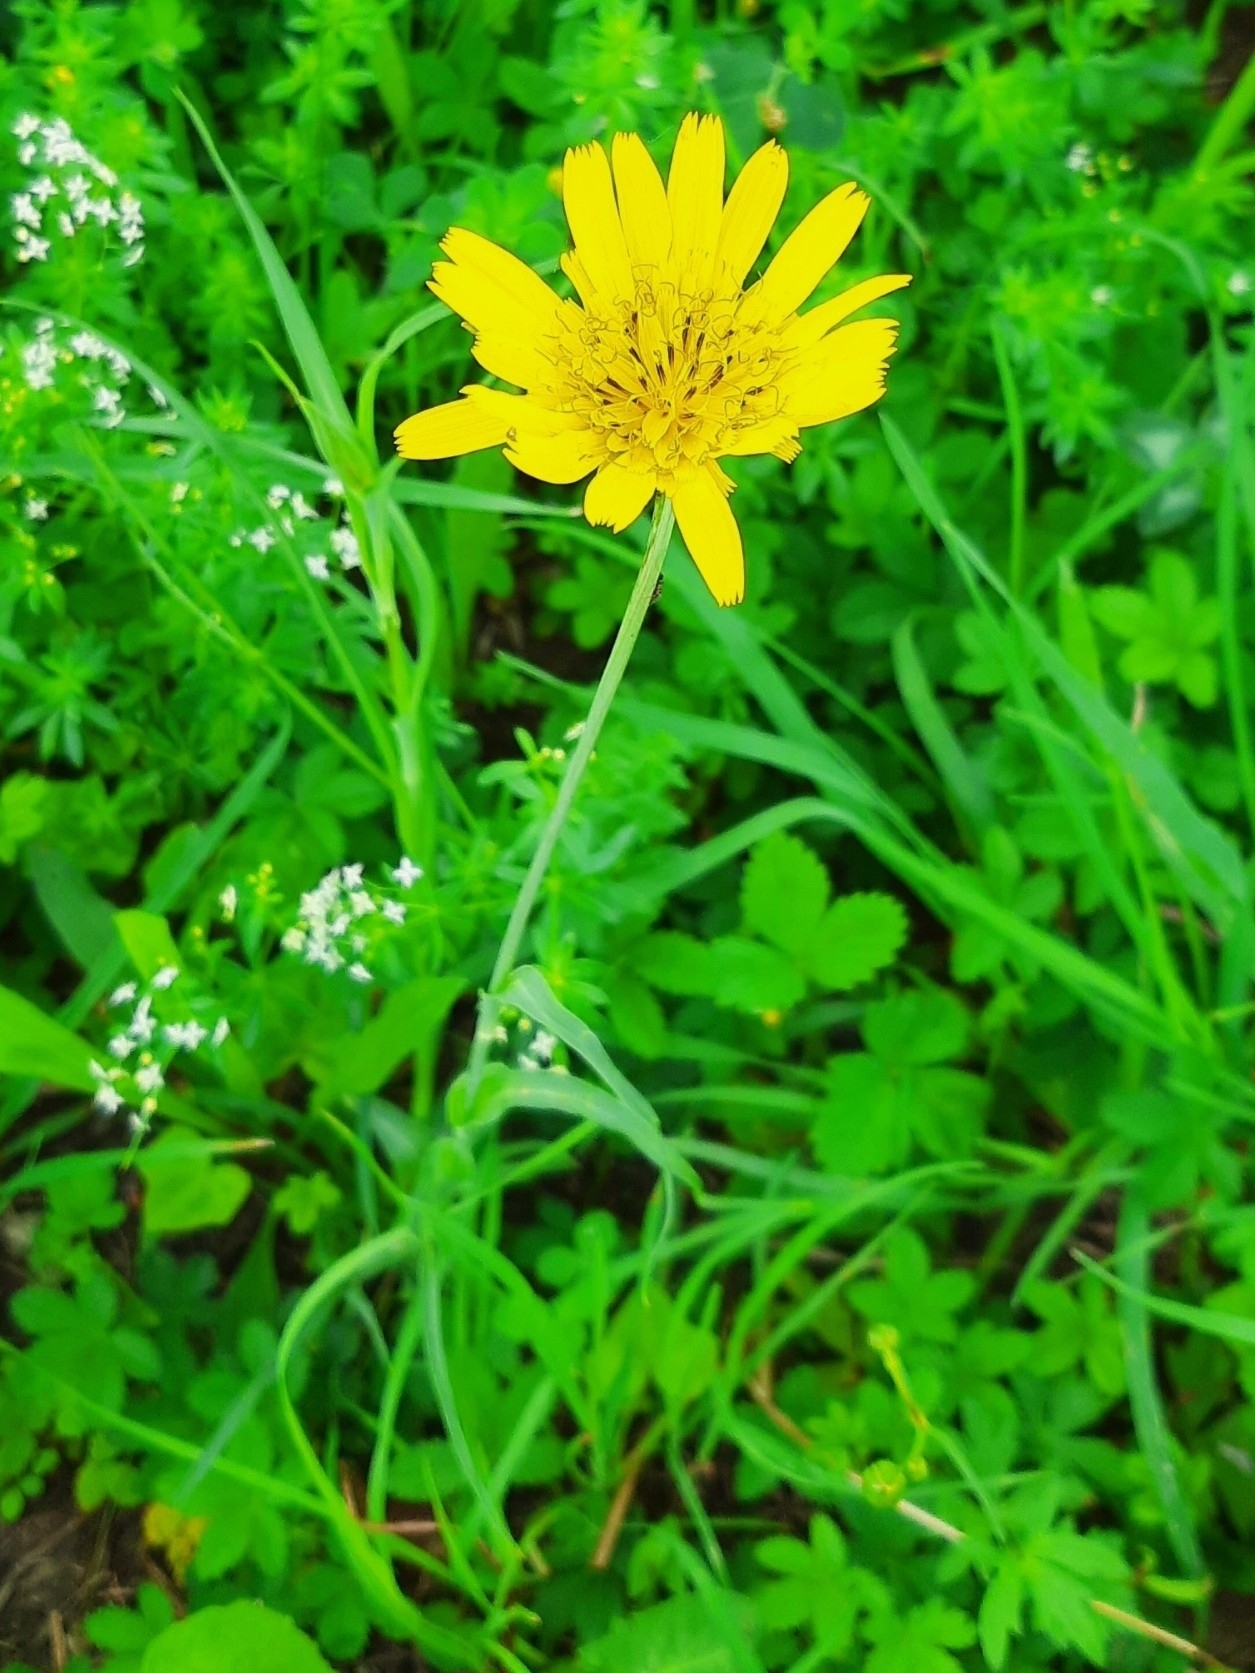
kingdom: Plantae
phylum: Tracheophyta
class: Magnoliopsida
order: Asterales
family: Asteraceae
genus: Tragopogon
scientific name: Tragopogon orientalis
